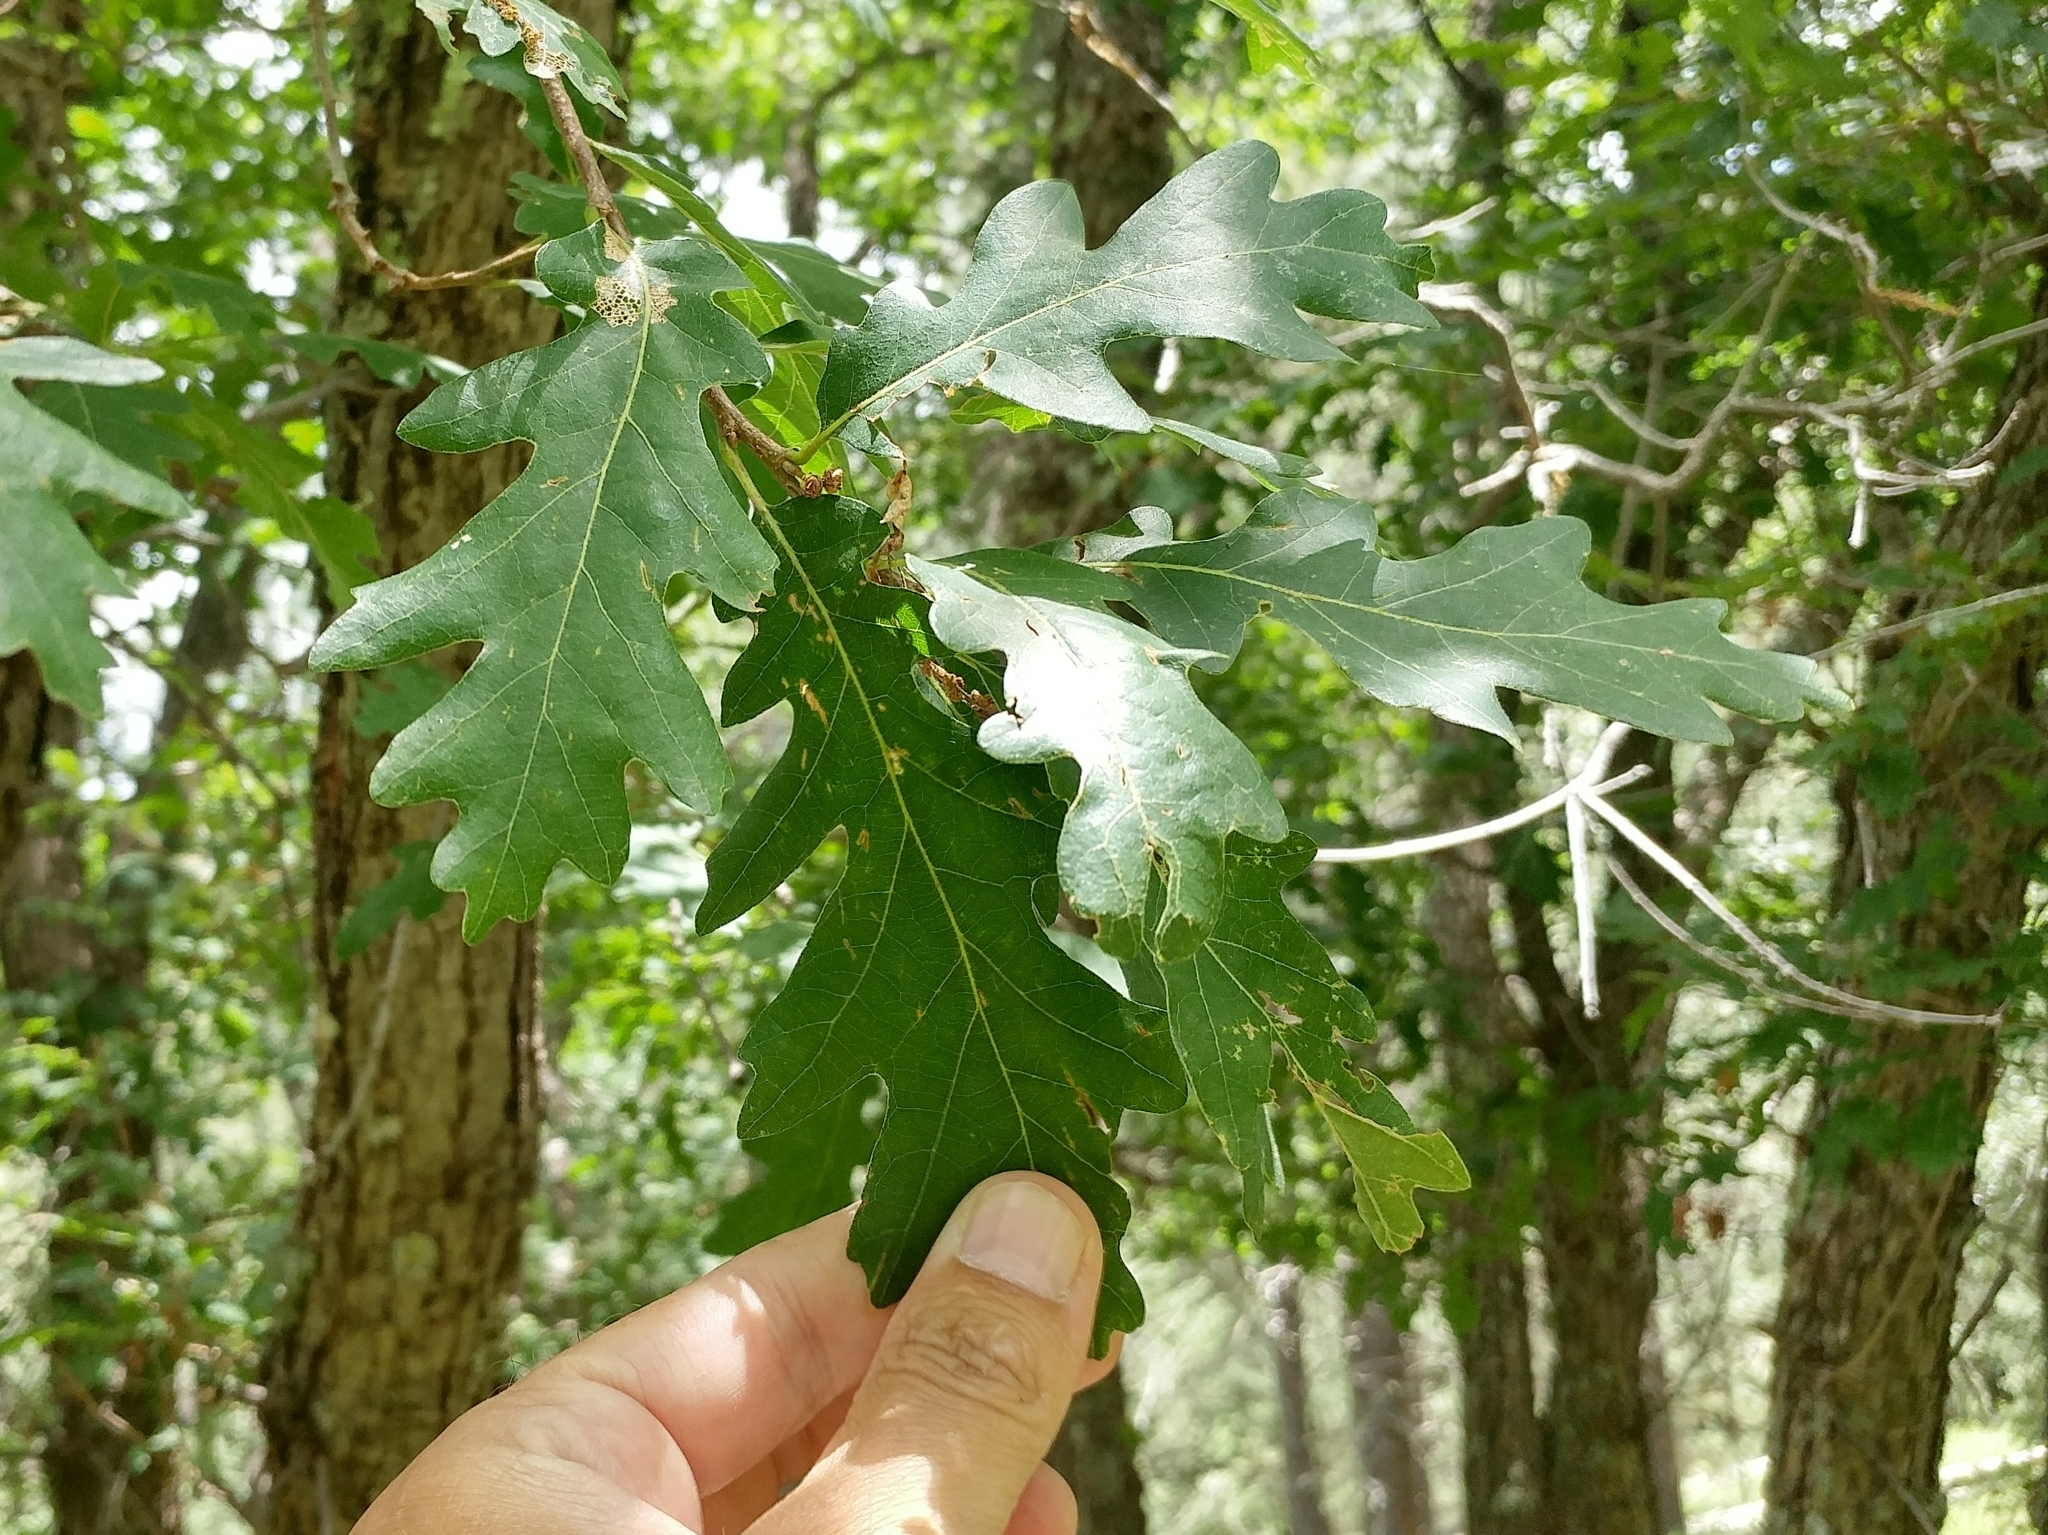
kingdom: Plantae
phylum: Tracheophyta
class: Magnoliopsida
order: Fagales
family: Fagaceae
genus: Quercus
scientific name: Quercus gambelii
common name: Gambel oak
